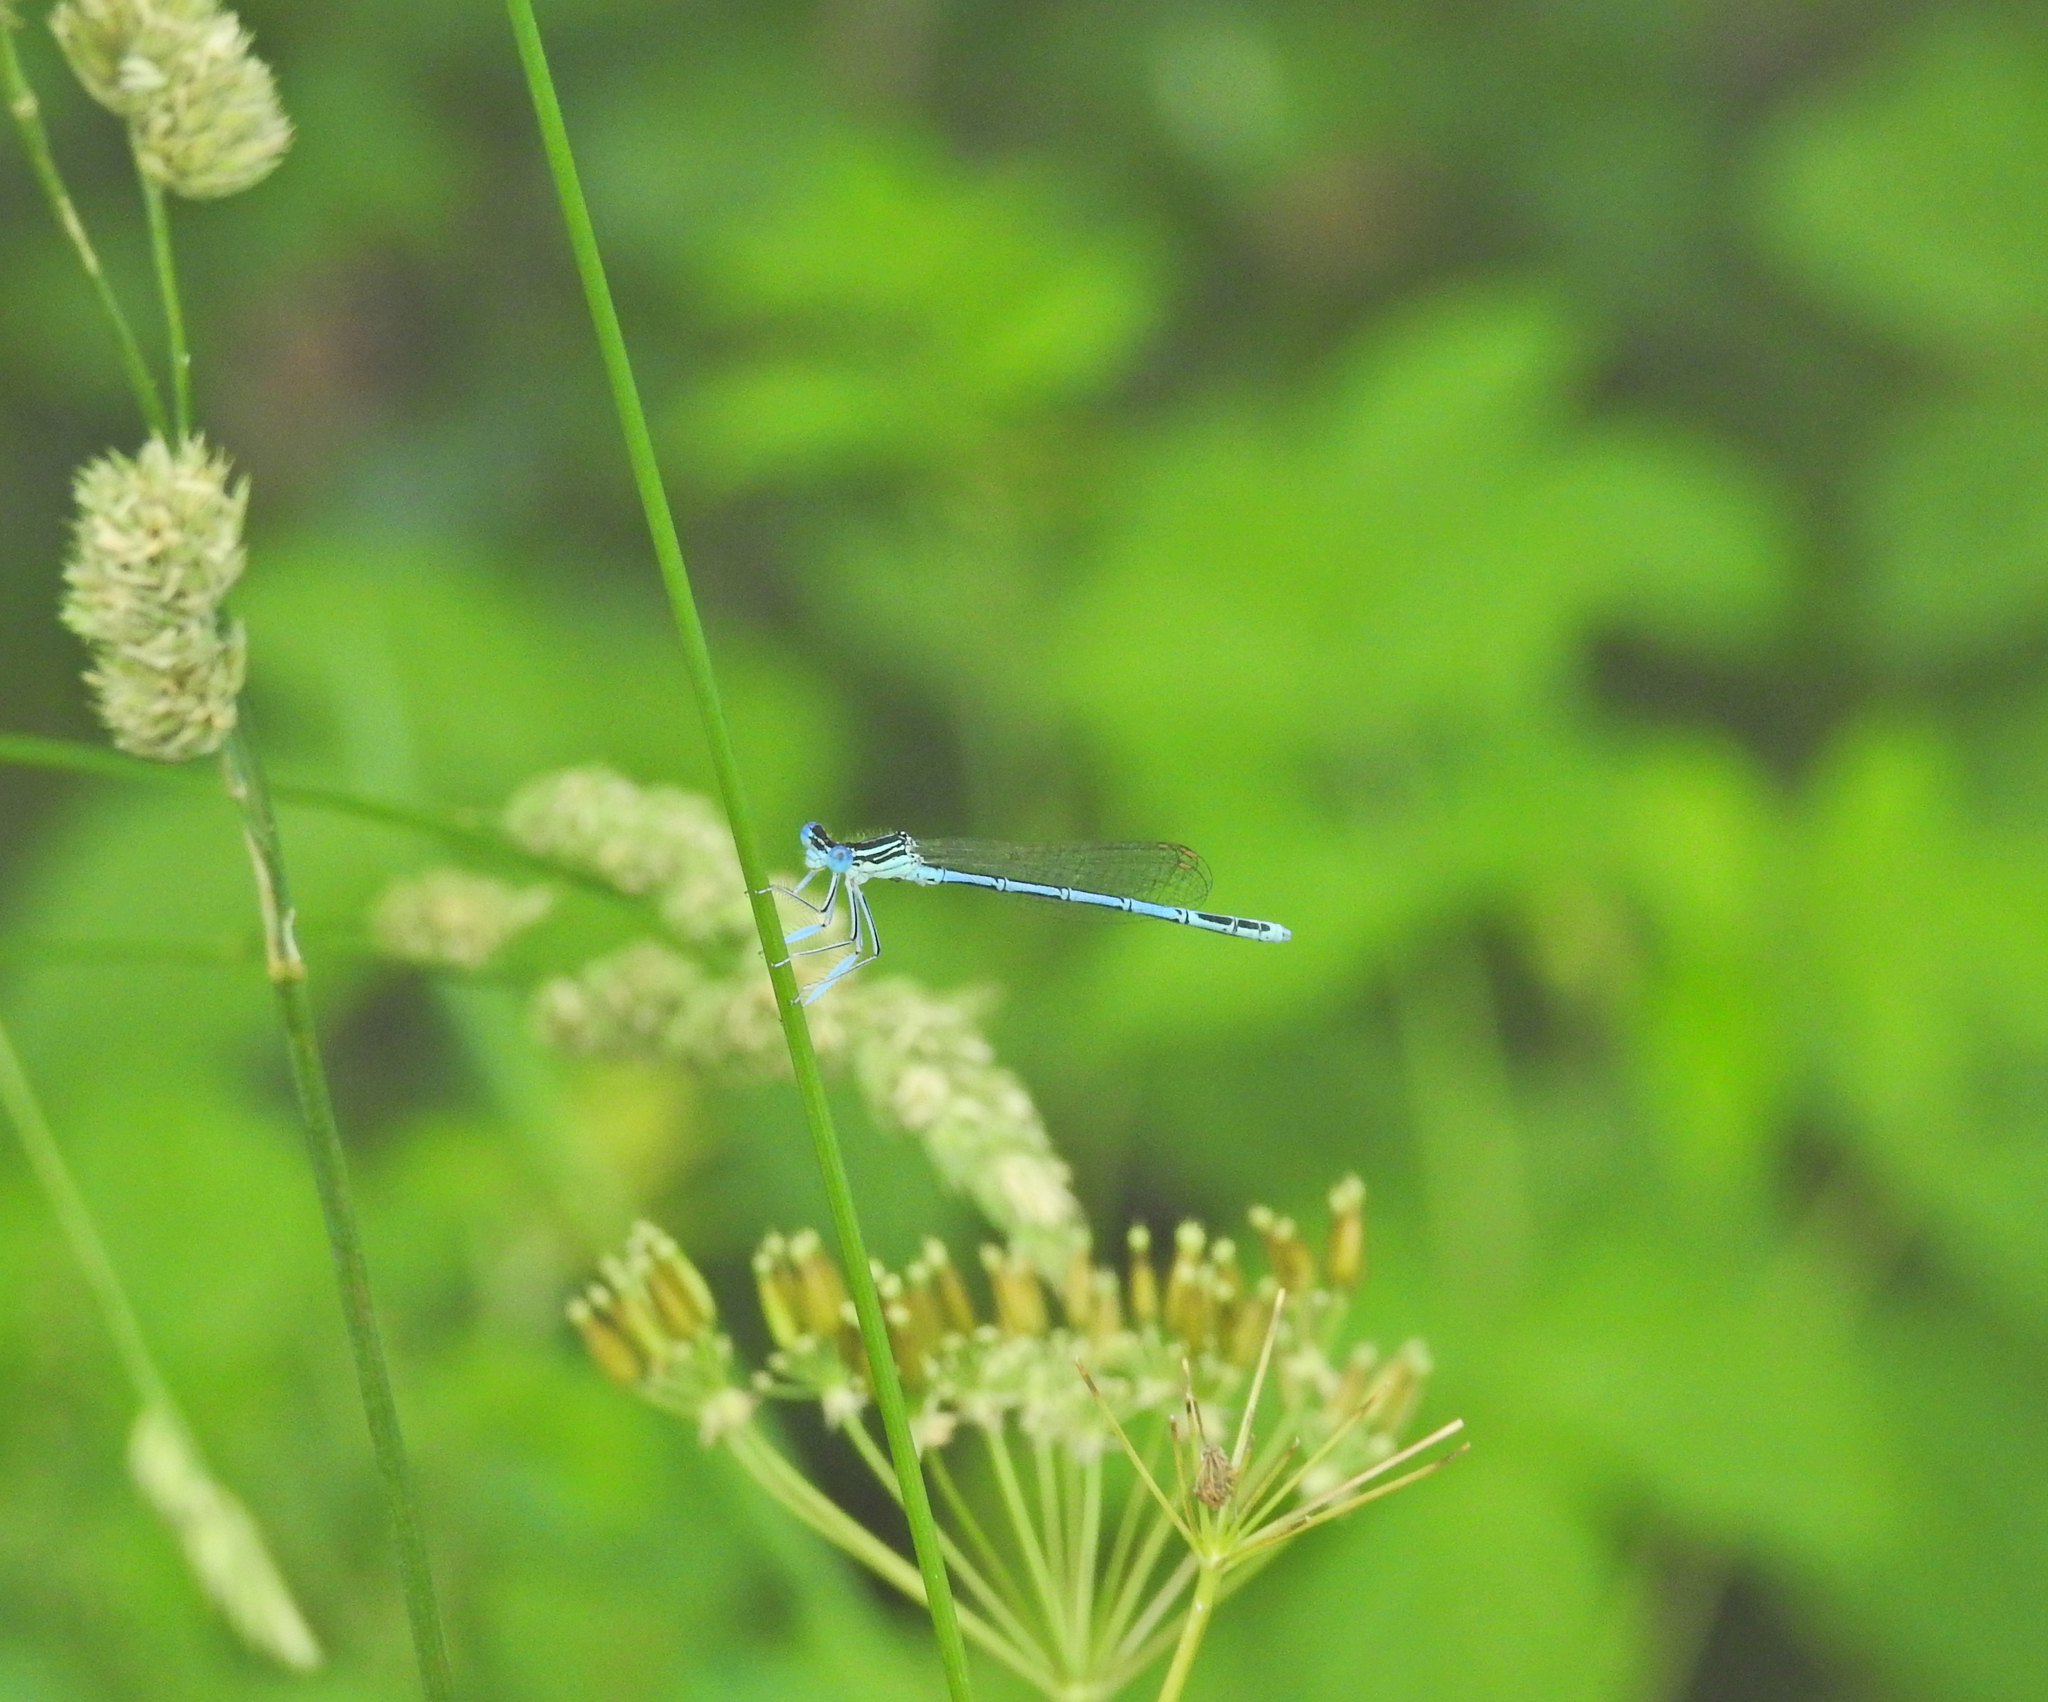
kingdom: Animalia
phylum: Arthropoda
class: Insecta
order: Odonata
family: Platycnemididae
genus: Platycnemis
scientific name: Platycnemis pennipes
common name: White-legged damselfly
